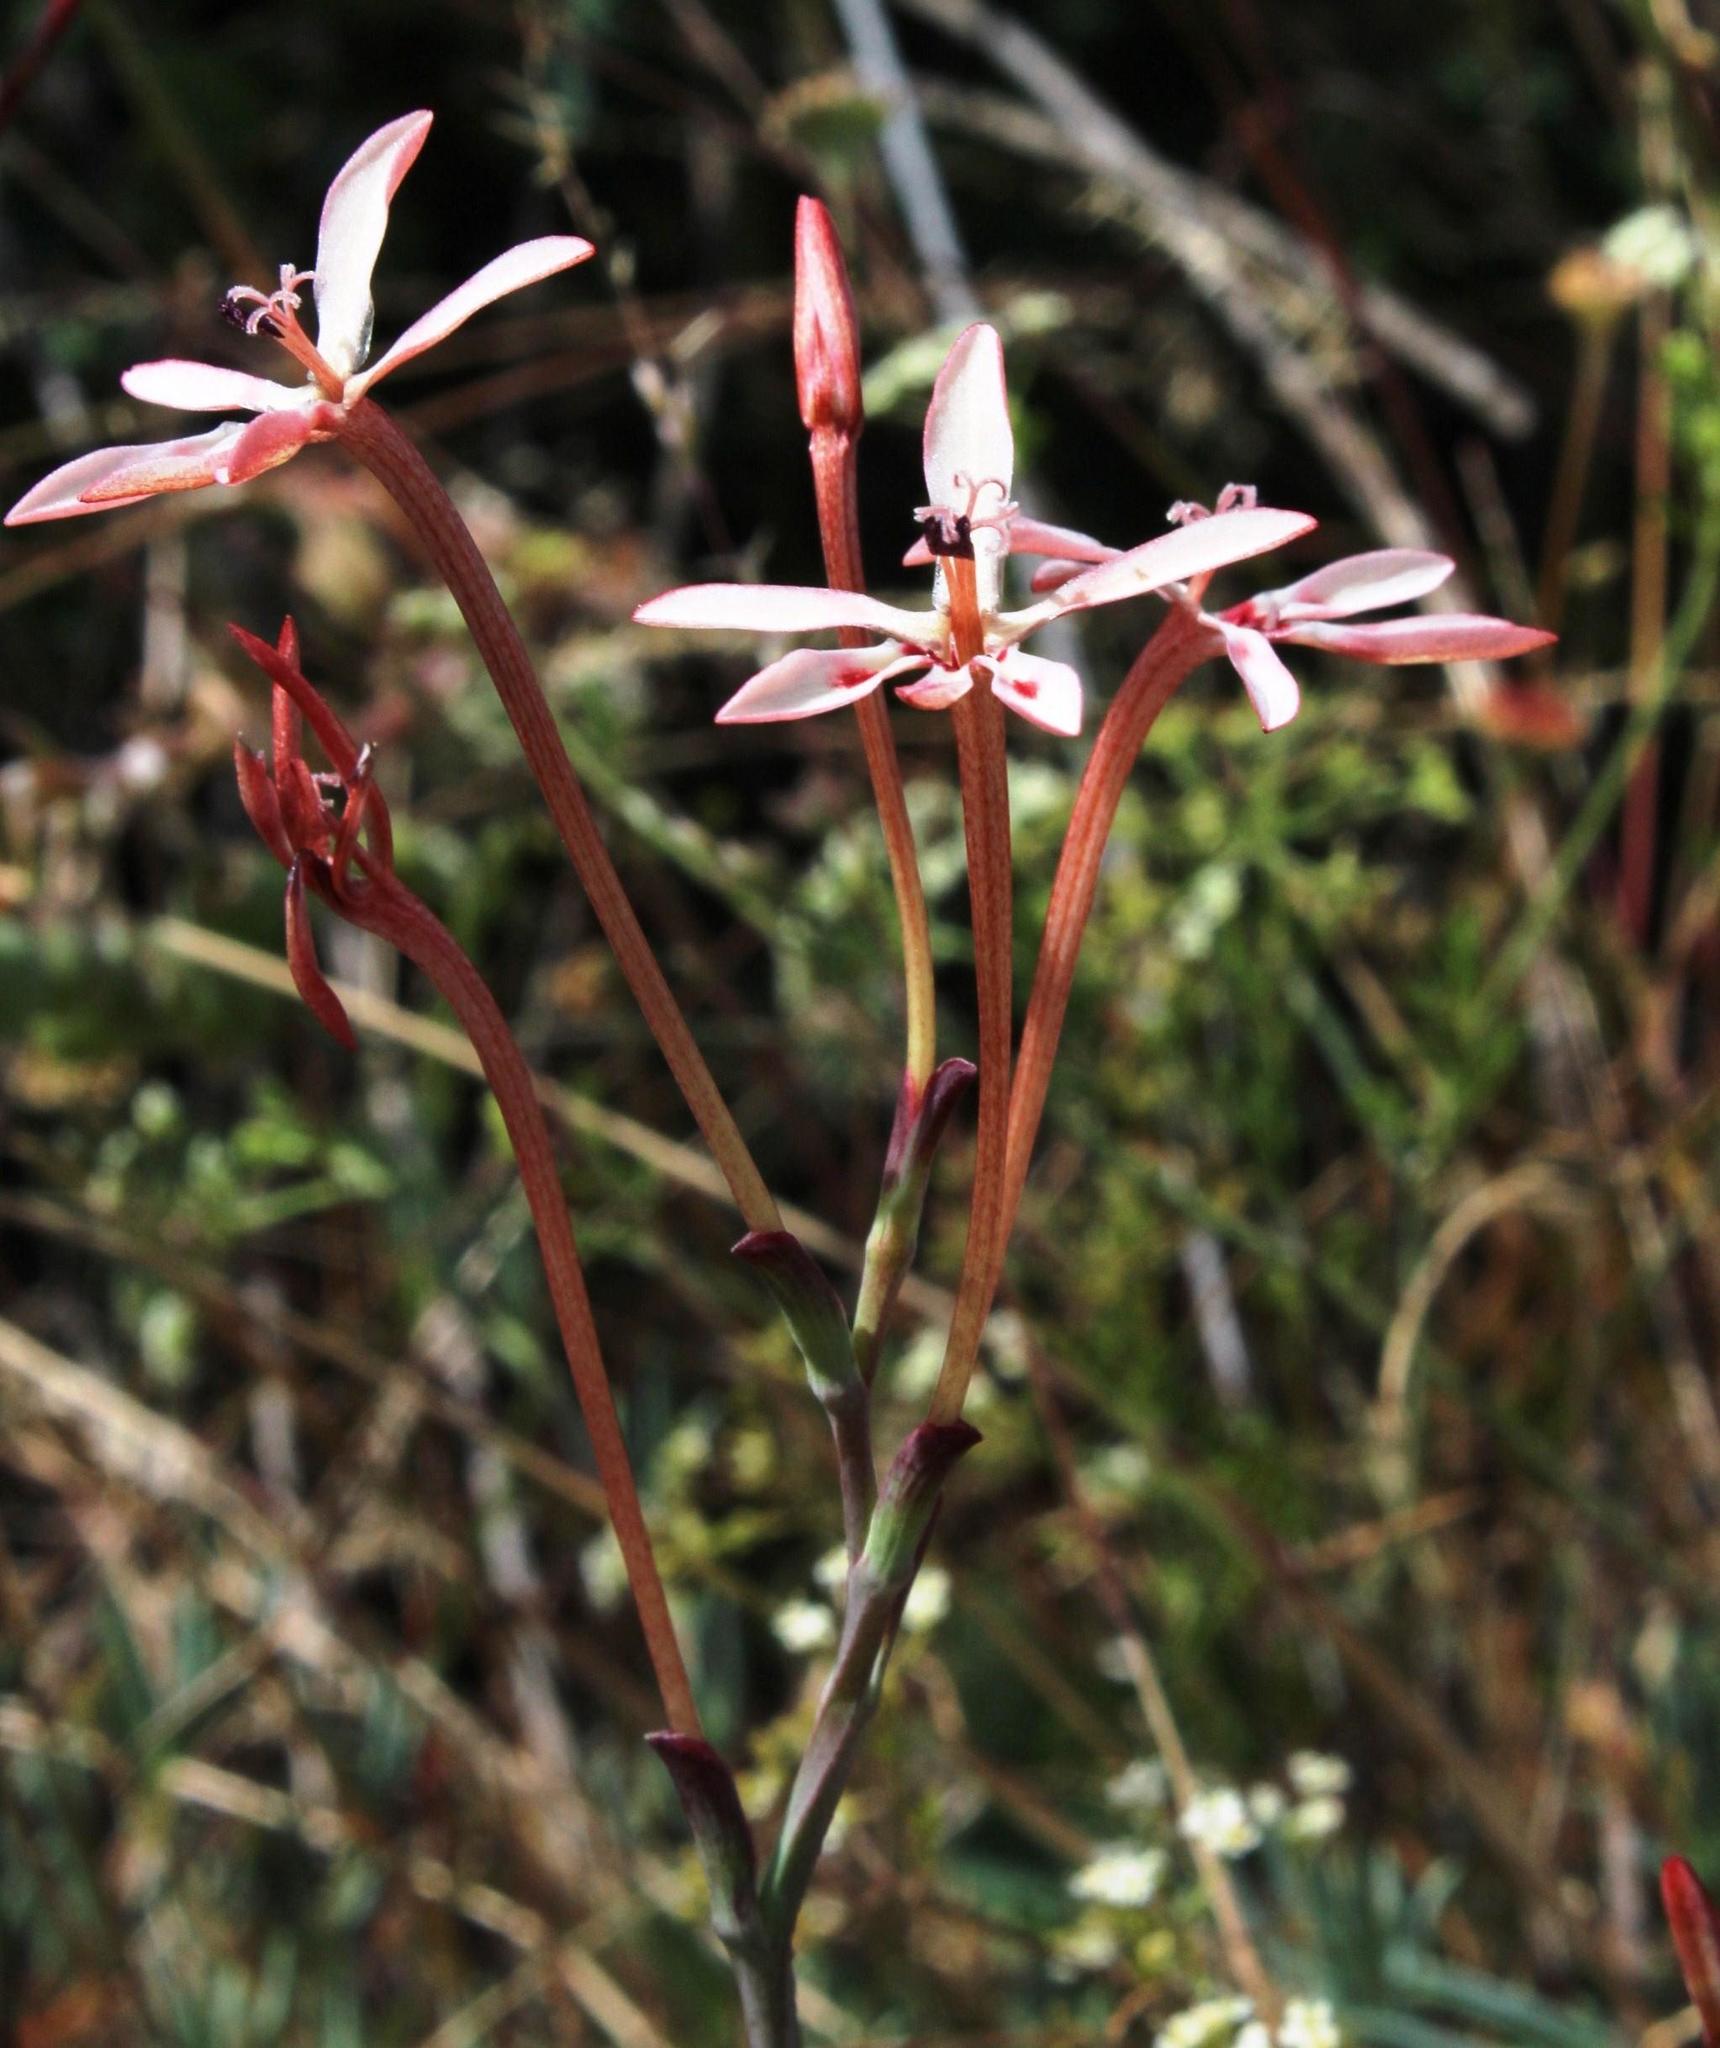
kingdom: Plantae
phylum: Tracheophyta
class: Liliopsida
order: Asparagales
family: Iridaceae
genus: Lapeirousia
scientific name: Lapeirousia anceps
